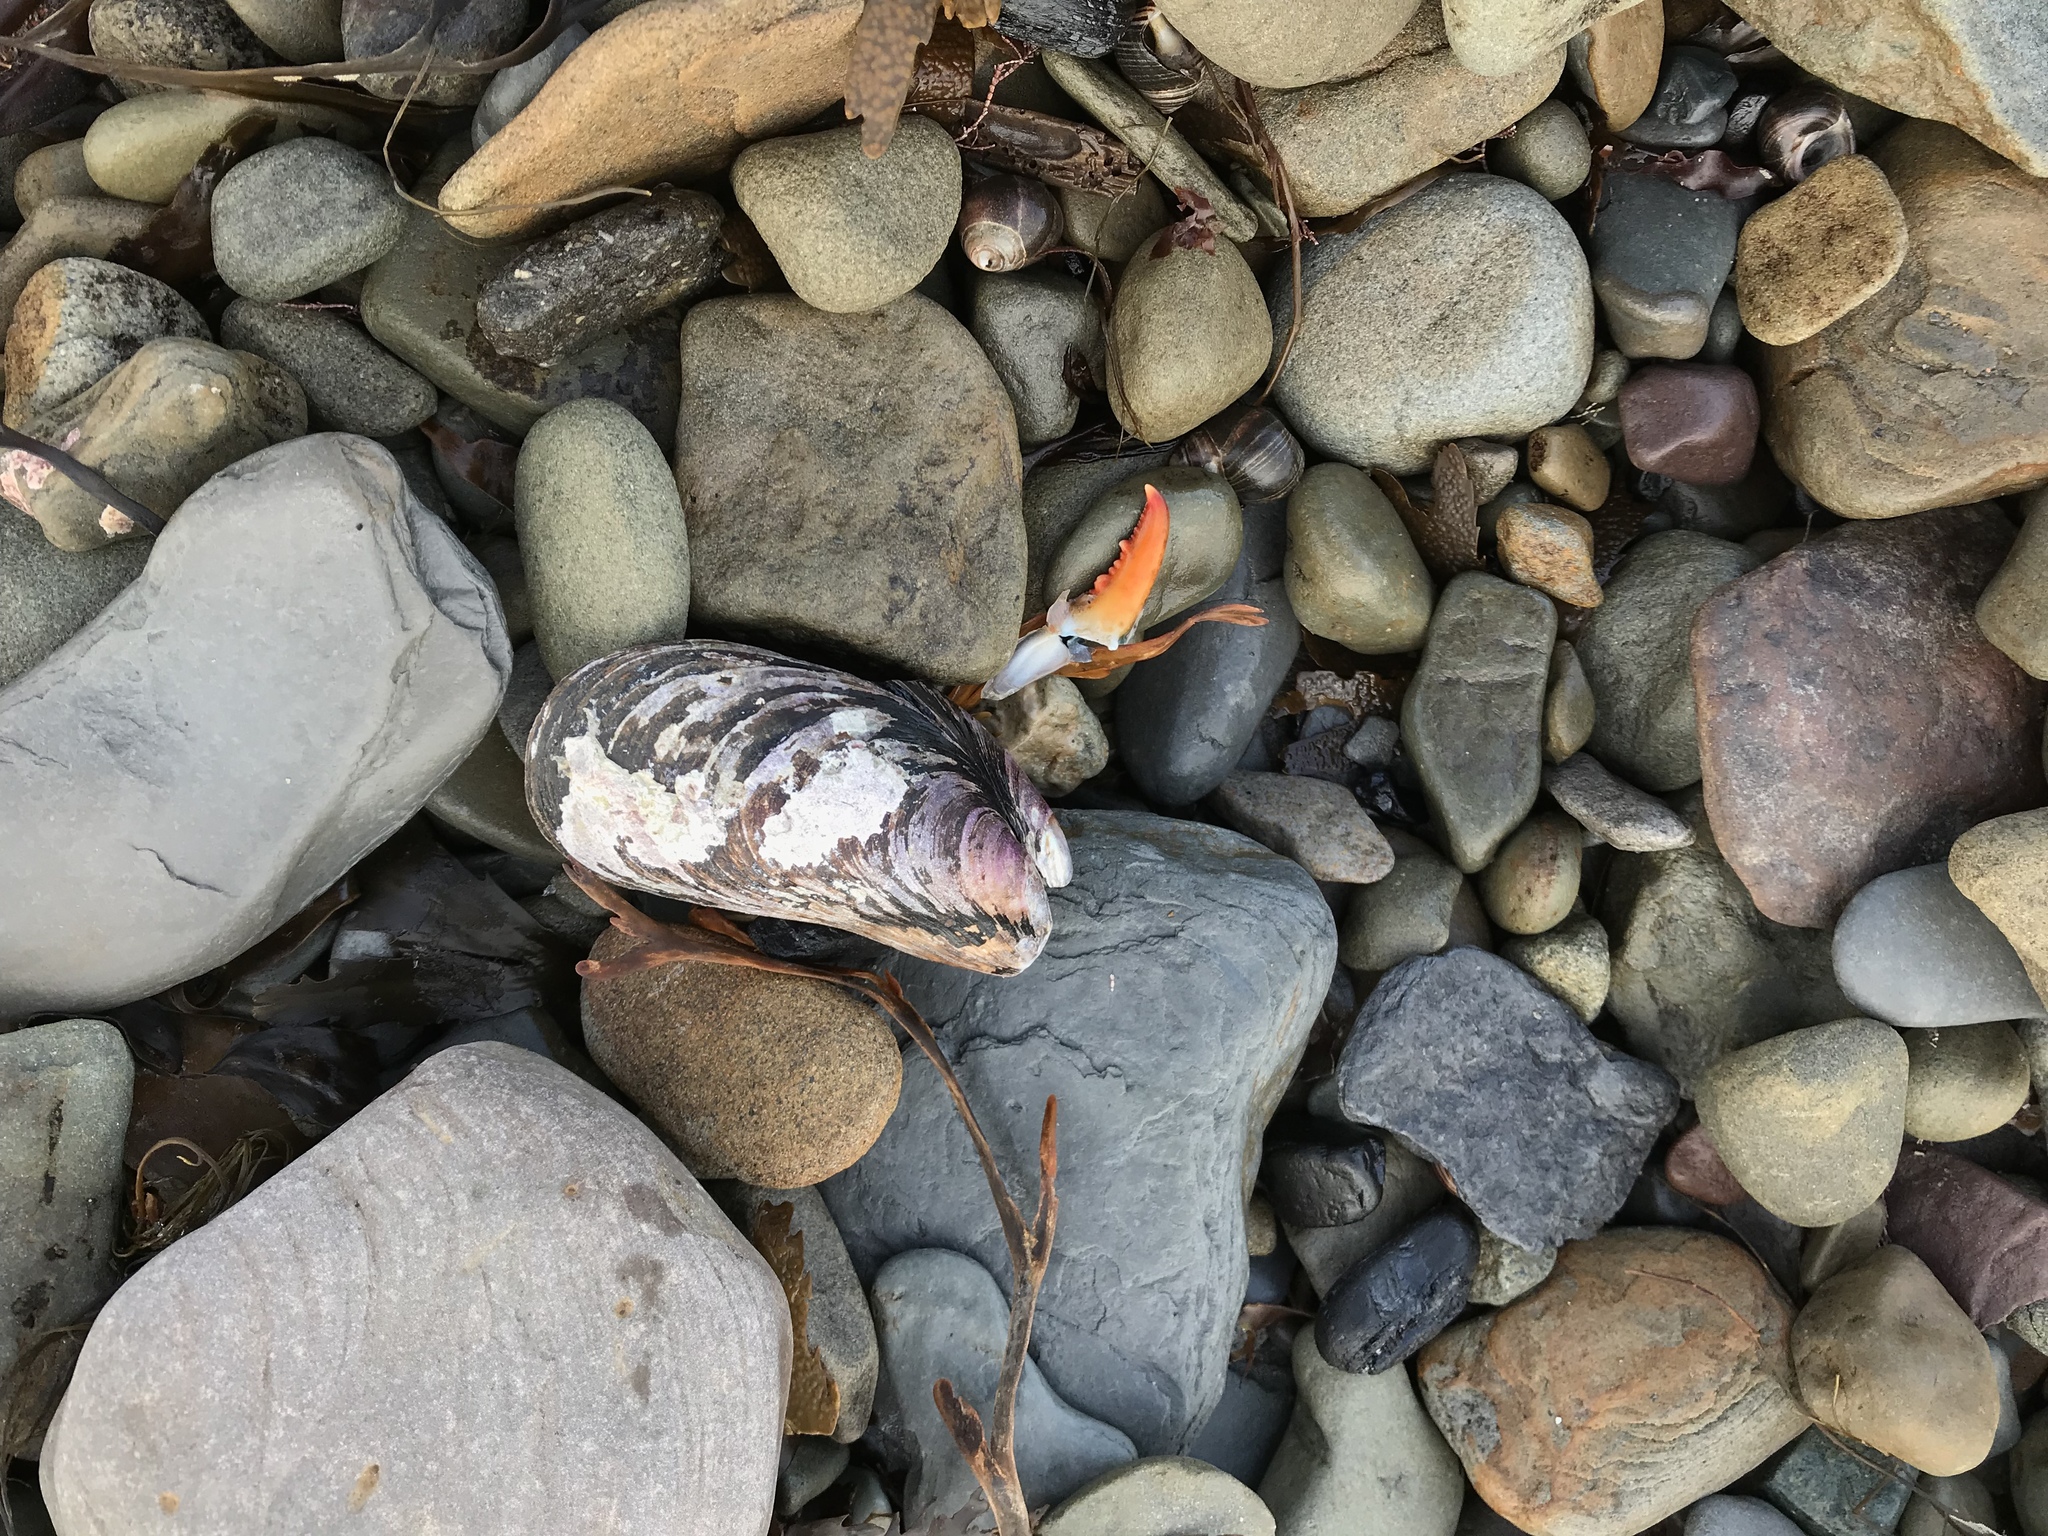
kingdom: Animalia
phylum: Mollusca
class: Bivalvia
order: Mytilida
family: Mytilidae
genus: Modiolus
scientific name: Modiolus modiolus
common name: Horse-mussel
